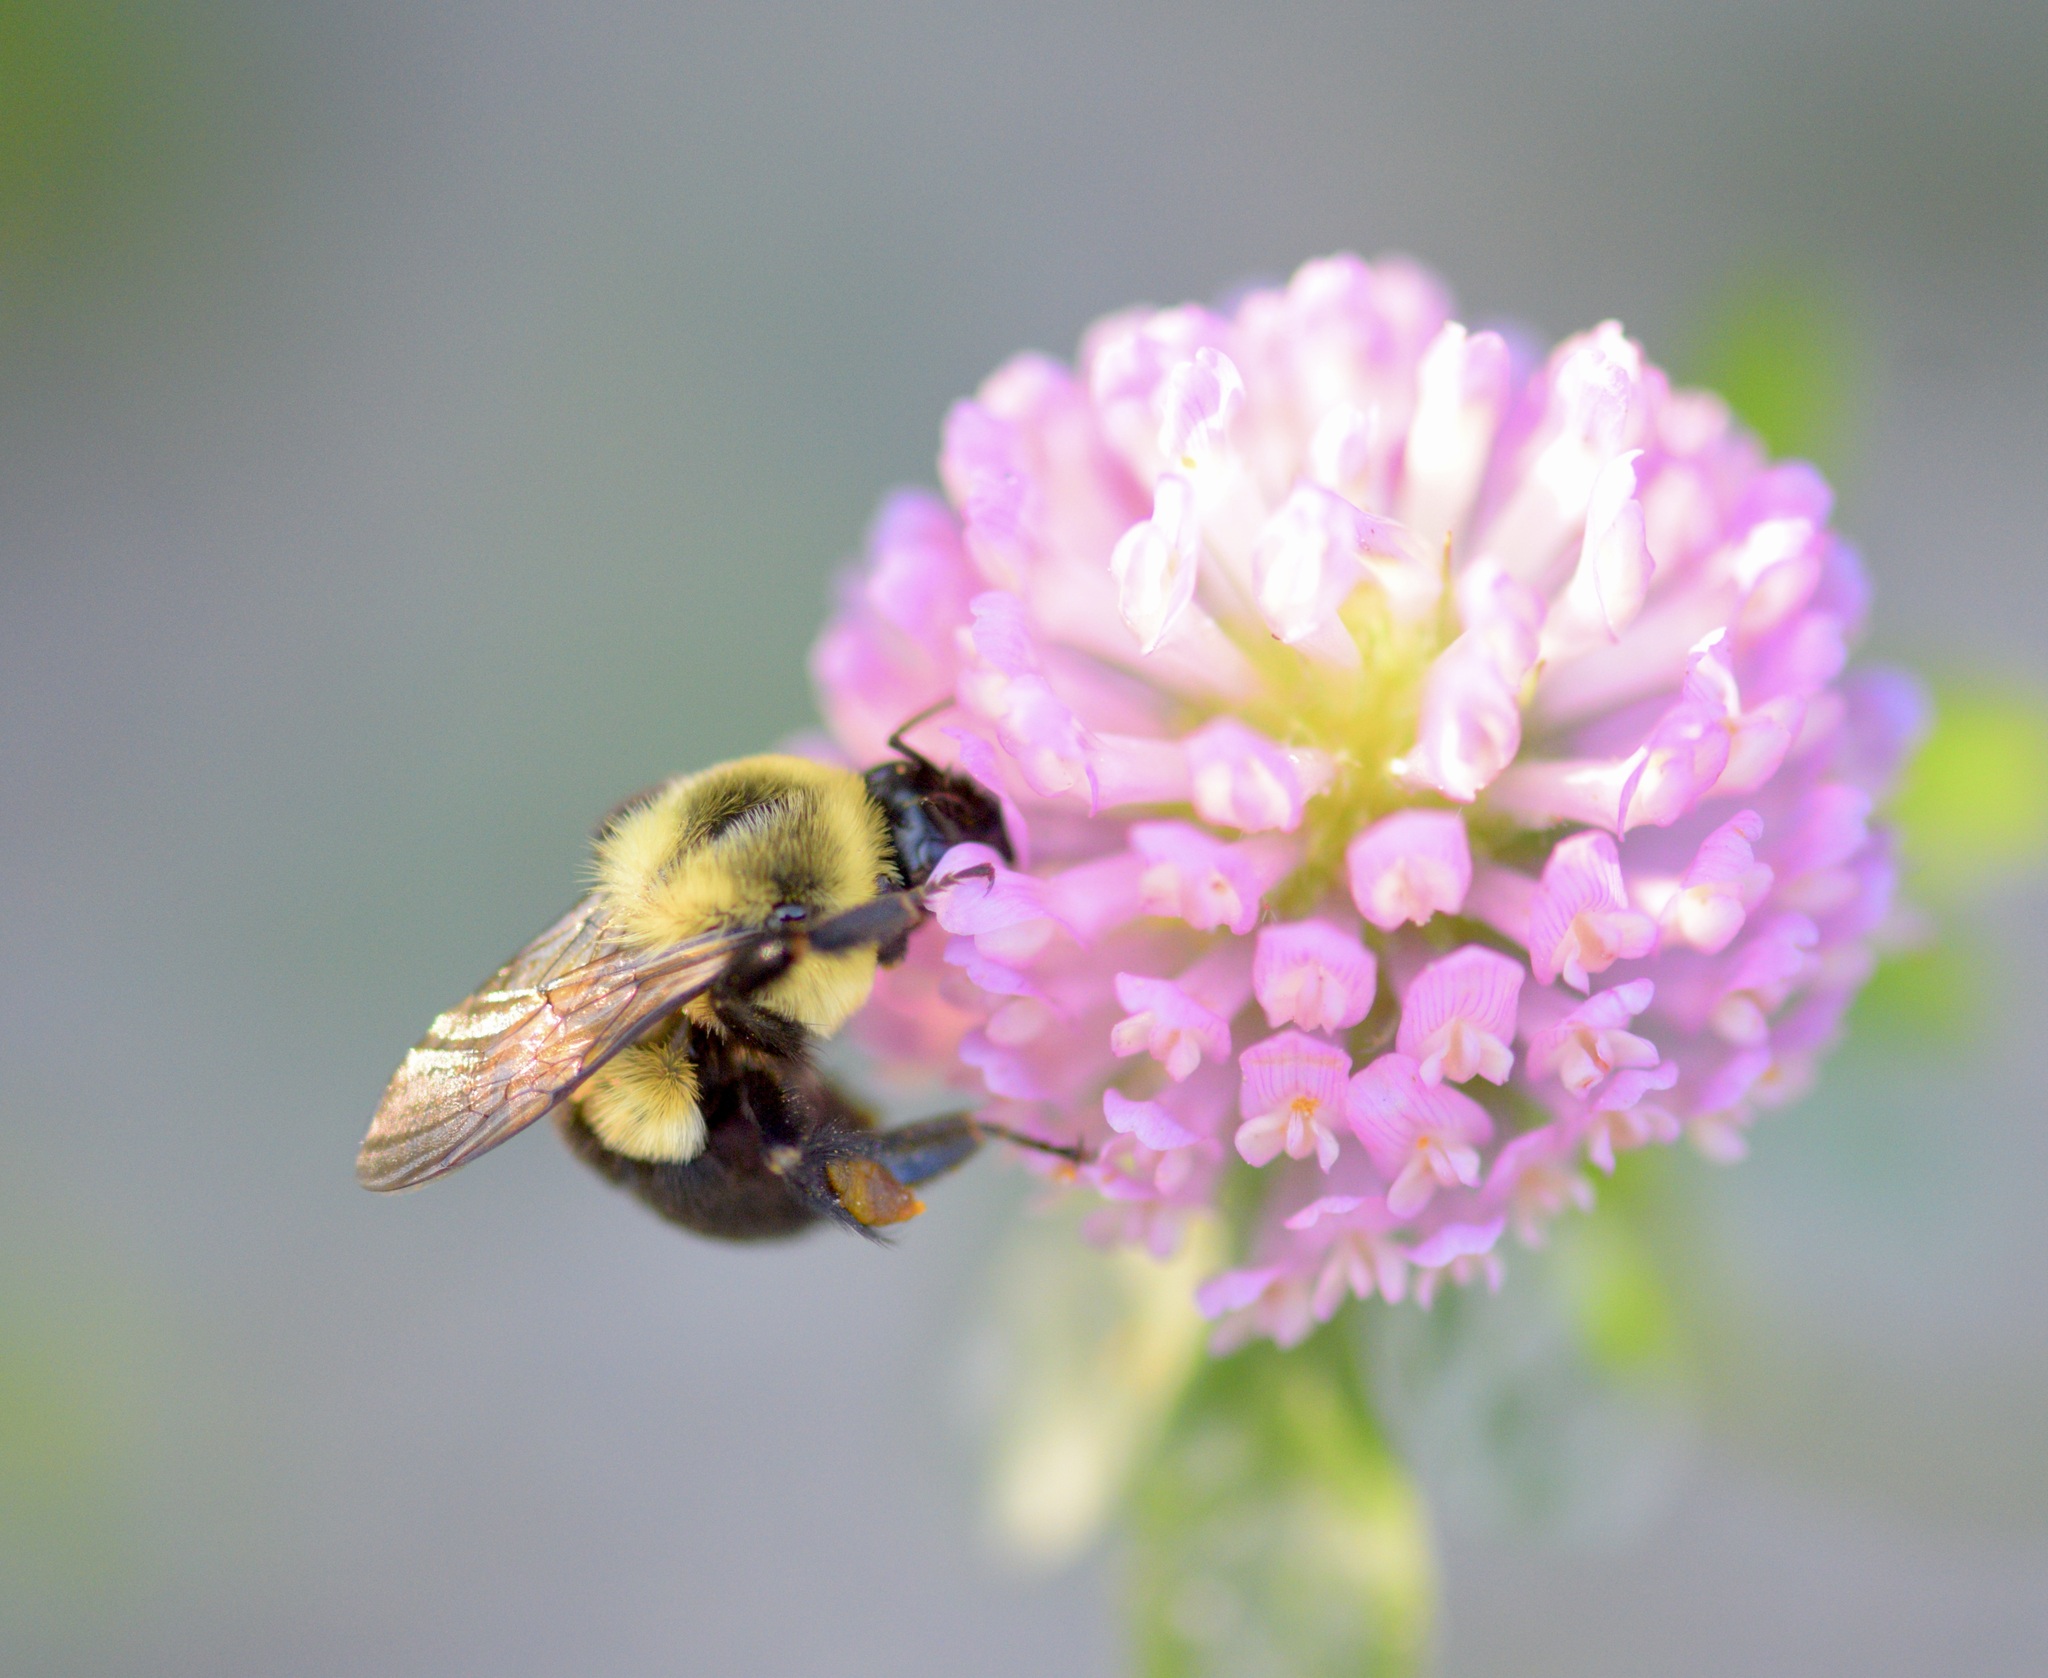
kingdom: Animalia
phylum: Arthropoda
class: Insecta
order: Hymenoptera
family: Apidae
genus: Bombus
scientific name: Bombus impatiens
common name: Common eastern bumble bee
